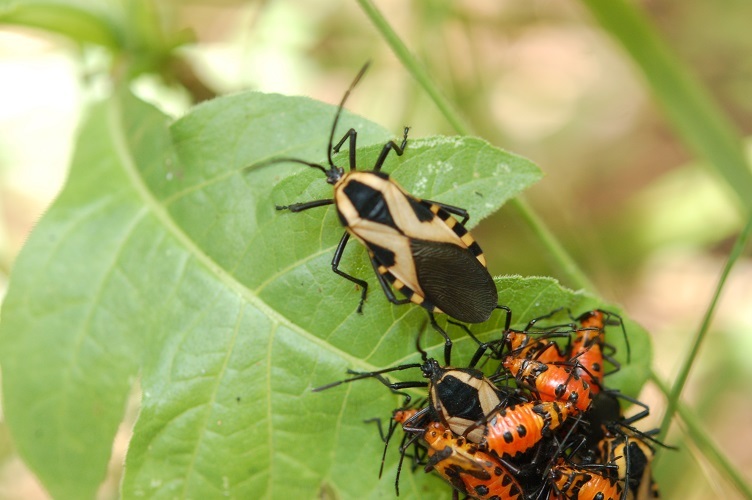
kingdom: Animalia
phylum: Arthropoda
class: Insecta
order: Hemiptera
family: Coreidae
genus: Sephina
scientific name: Sephina vinula
